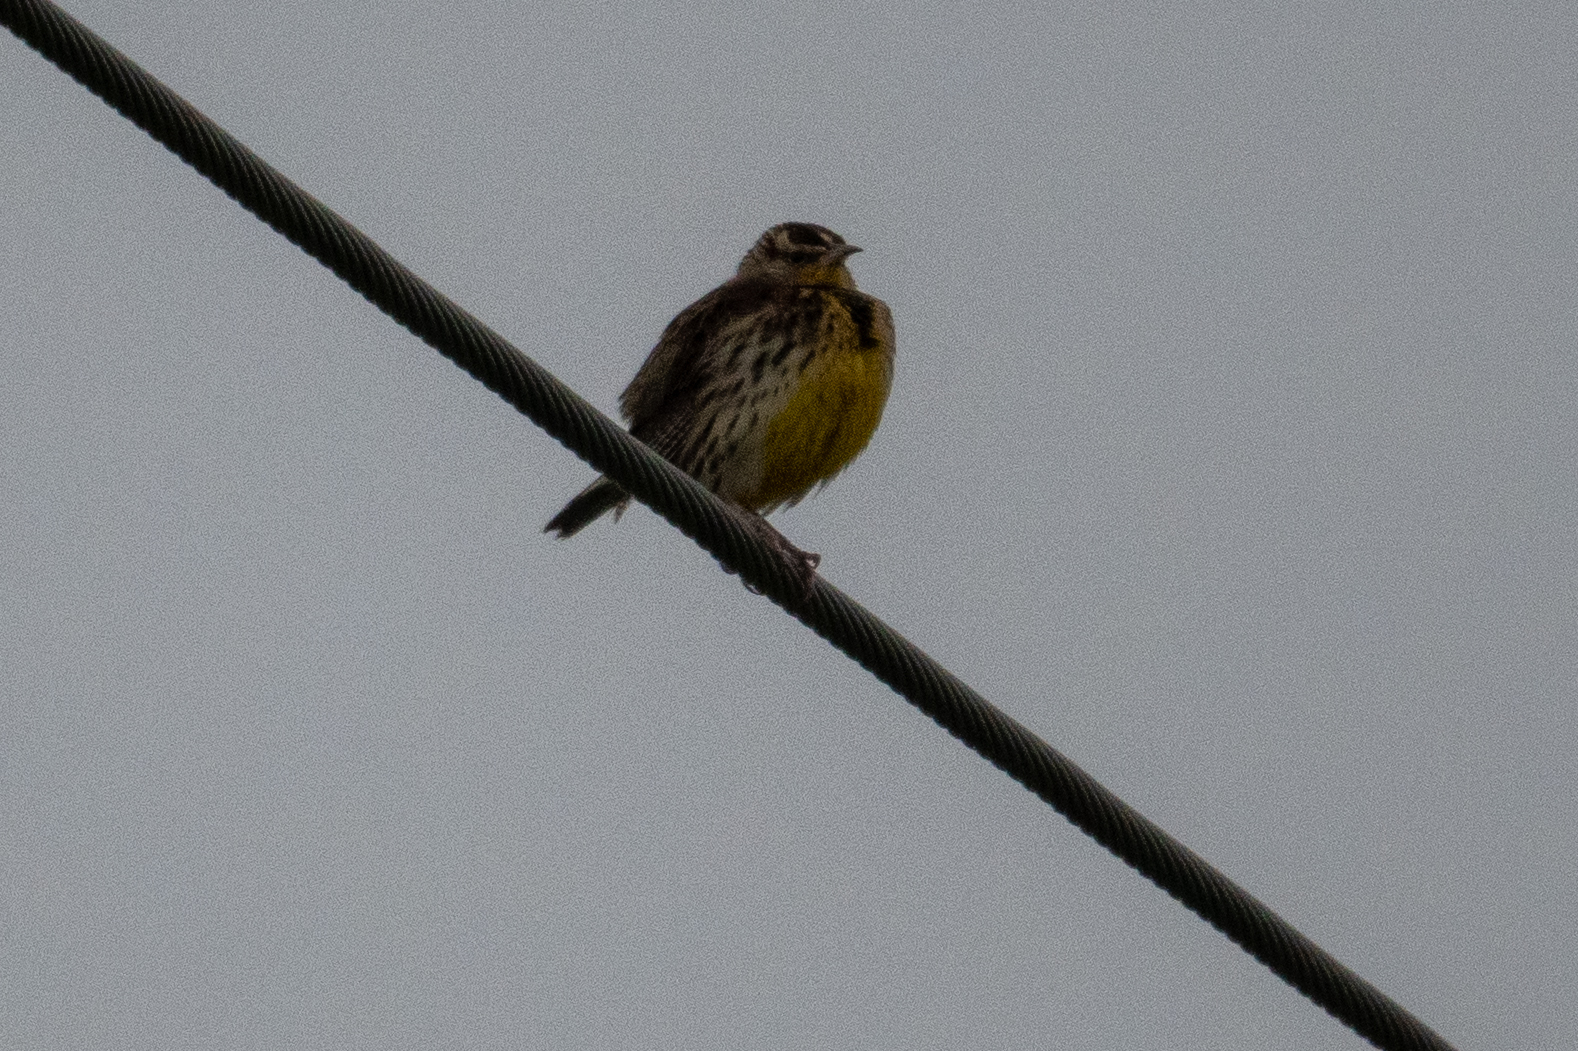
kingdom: Animalia
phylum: Chordata
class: Aves
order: Passeriformes
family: Icteridae
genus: Sturnella
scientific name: Sturnella neglecta
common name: Western meadowlark
